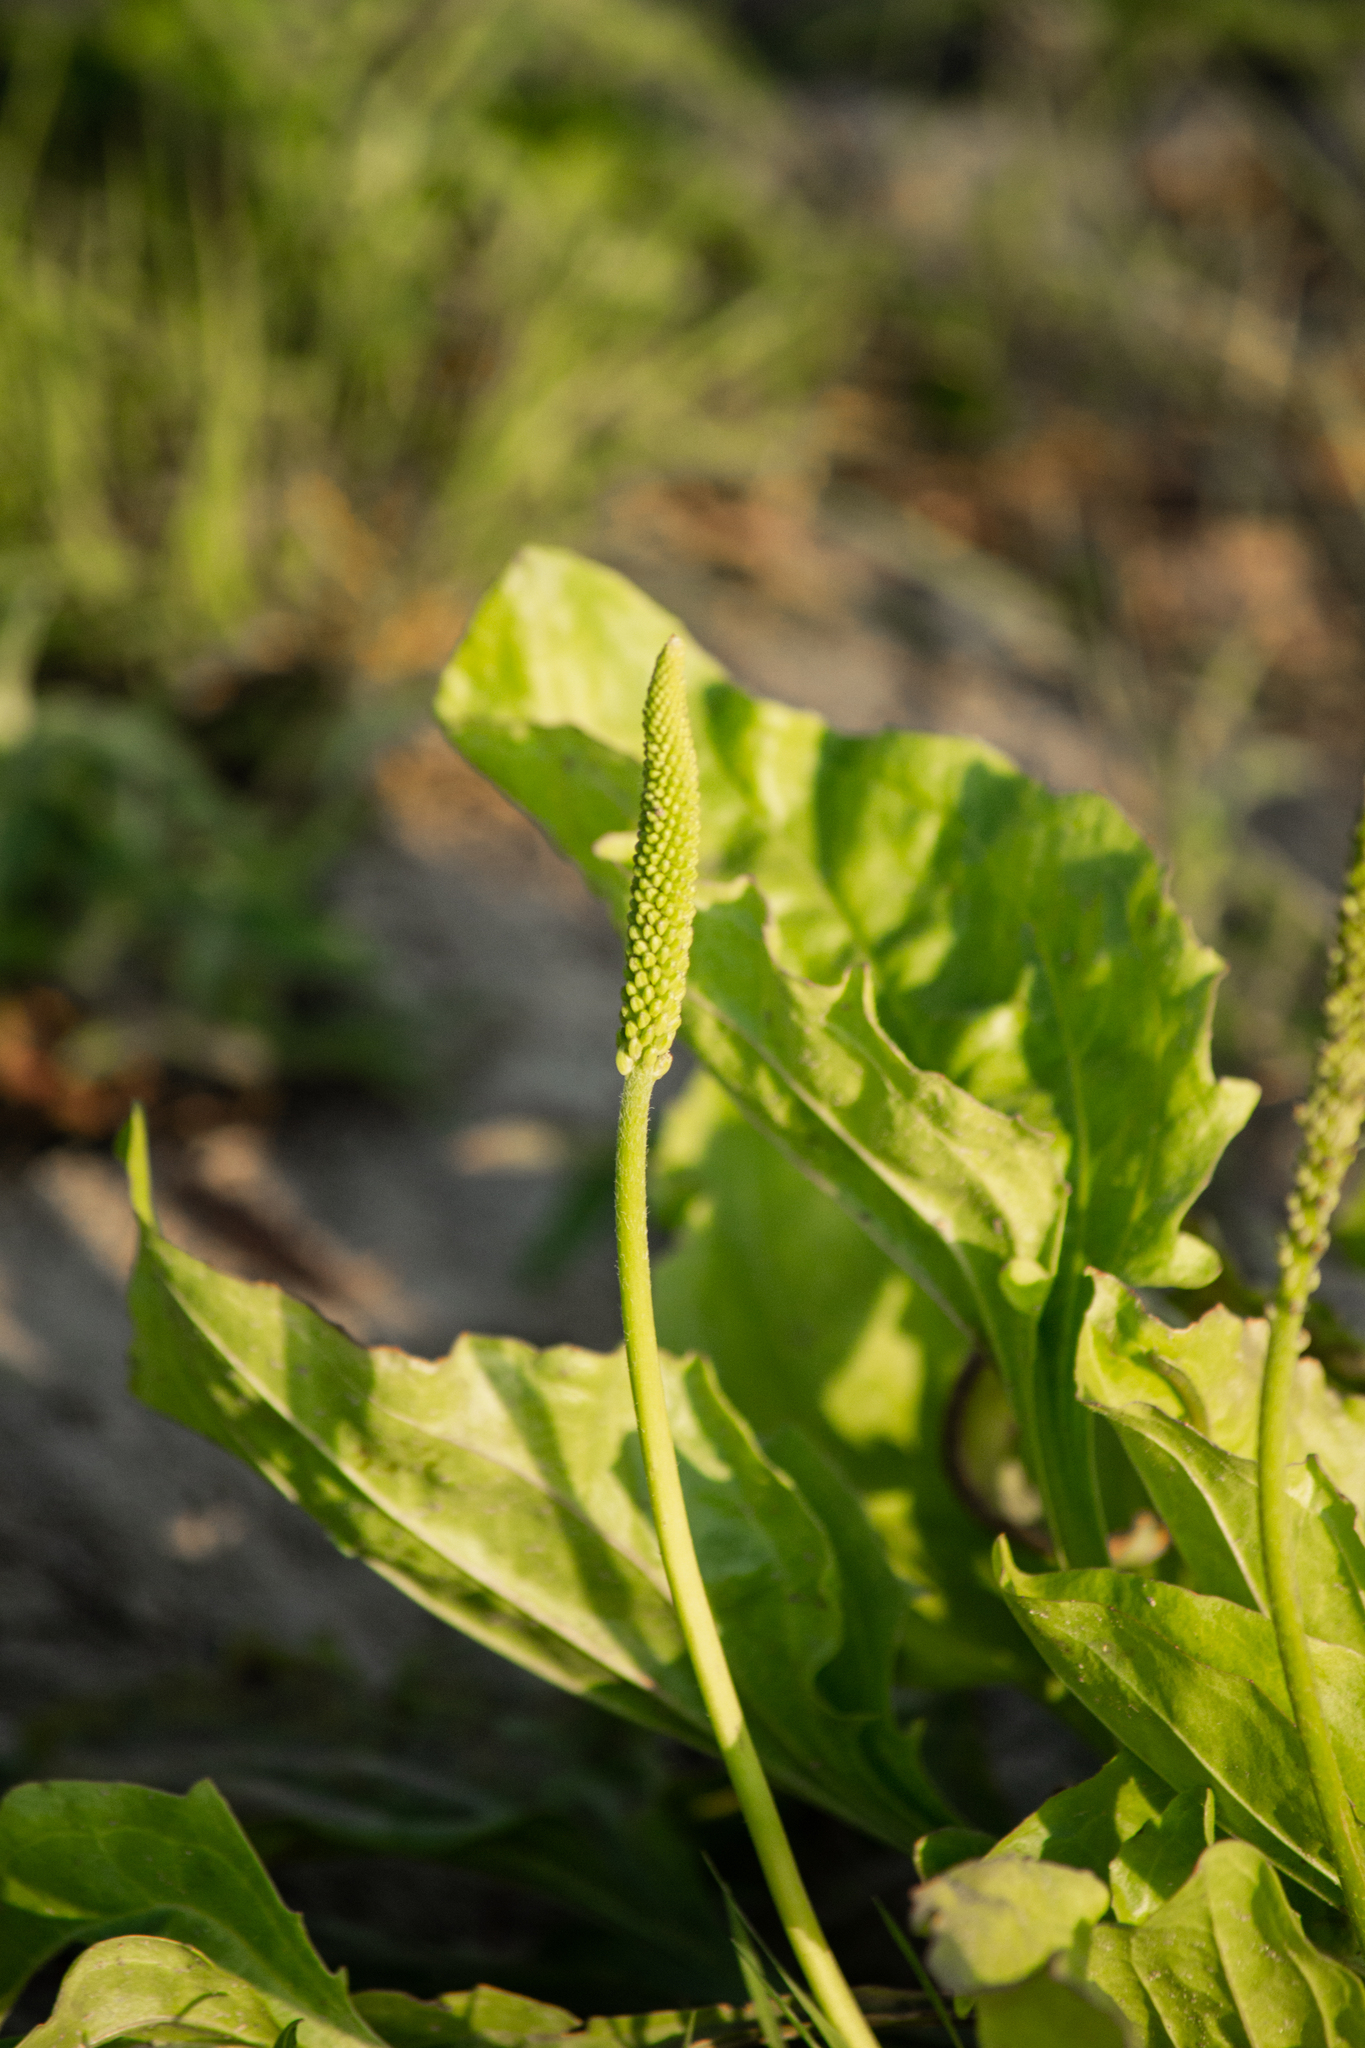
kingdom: Plantae
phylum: Tracheophyta
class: Magnoliopsida
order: Lamiales
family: Plantaginaceae
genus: Plantago
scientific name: Plantago major
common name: Common plantain
